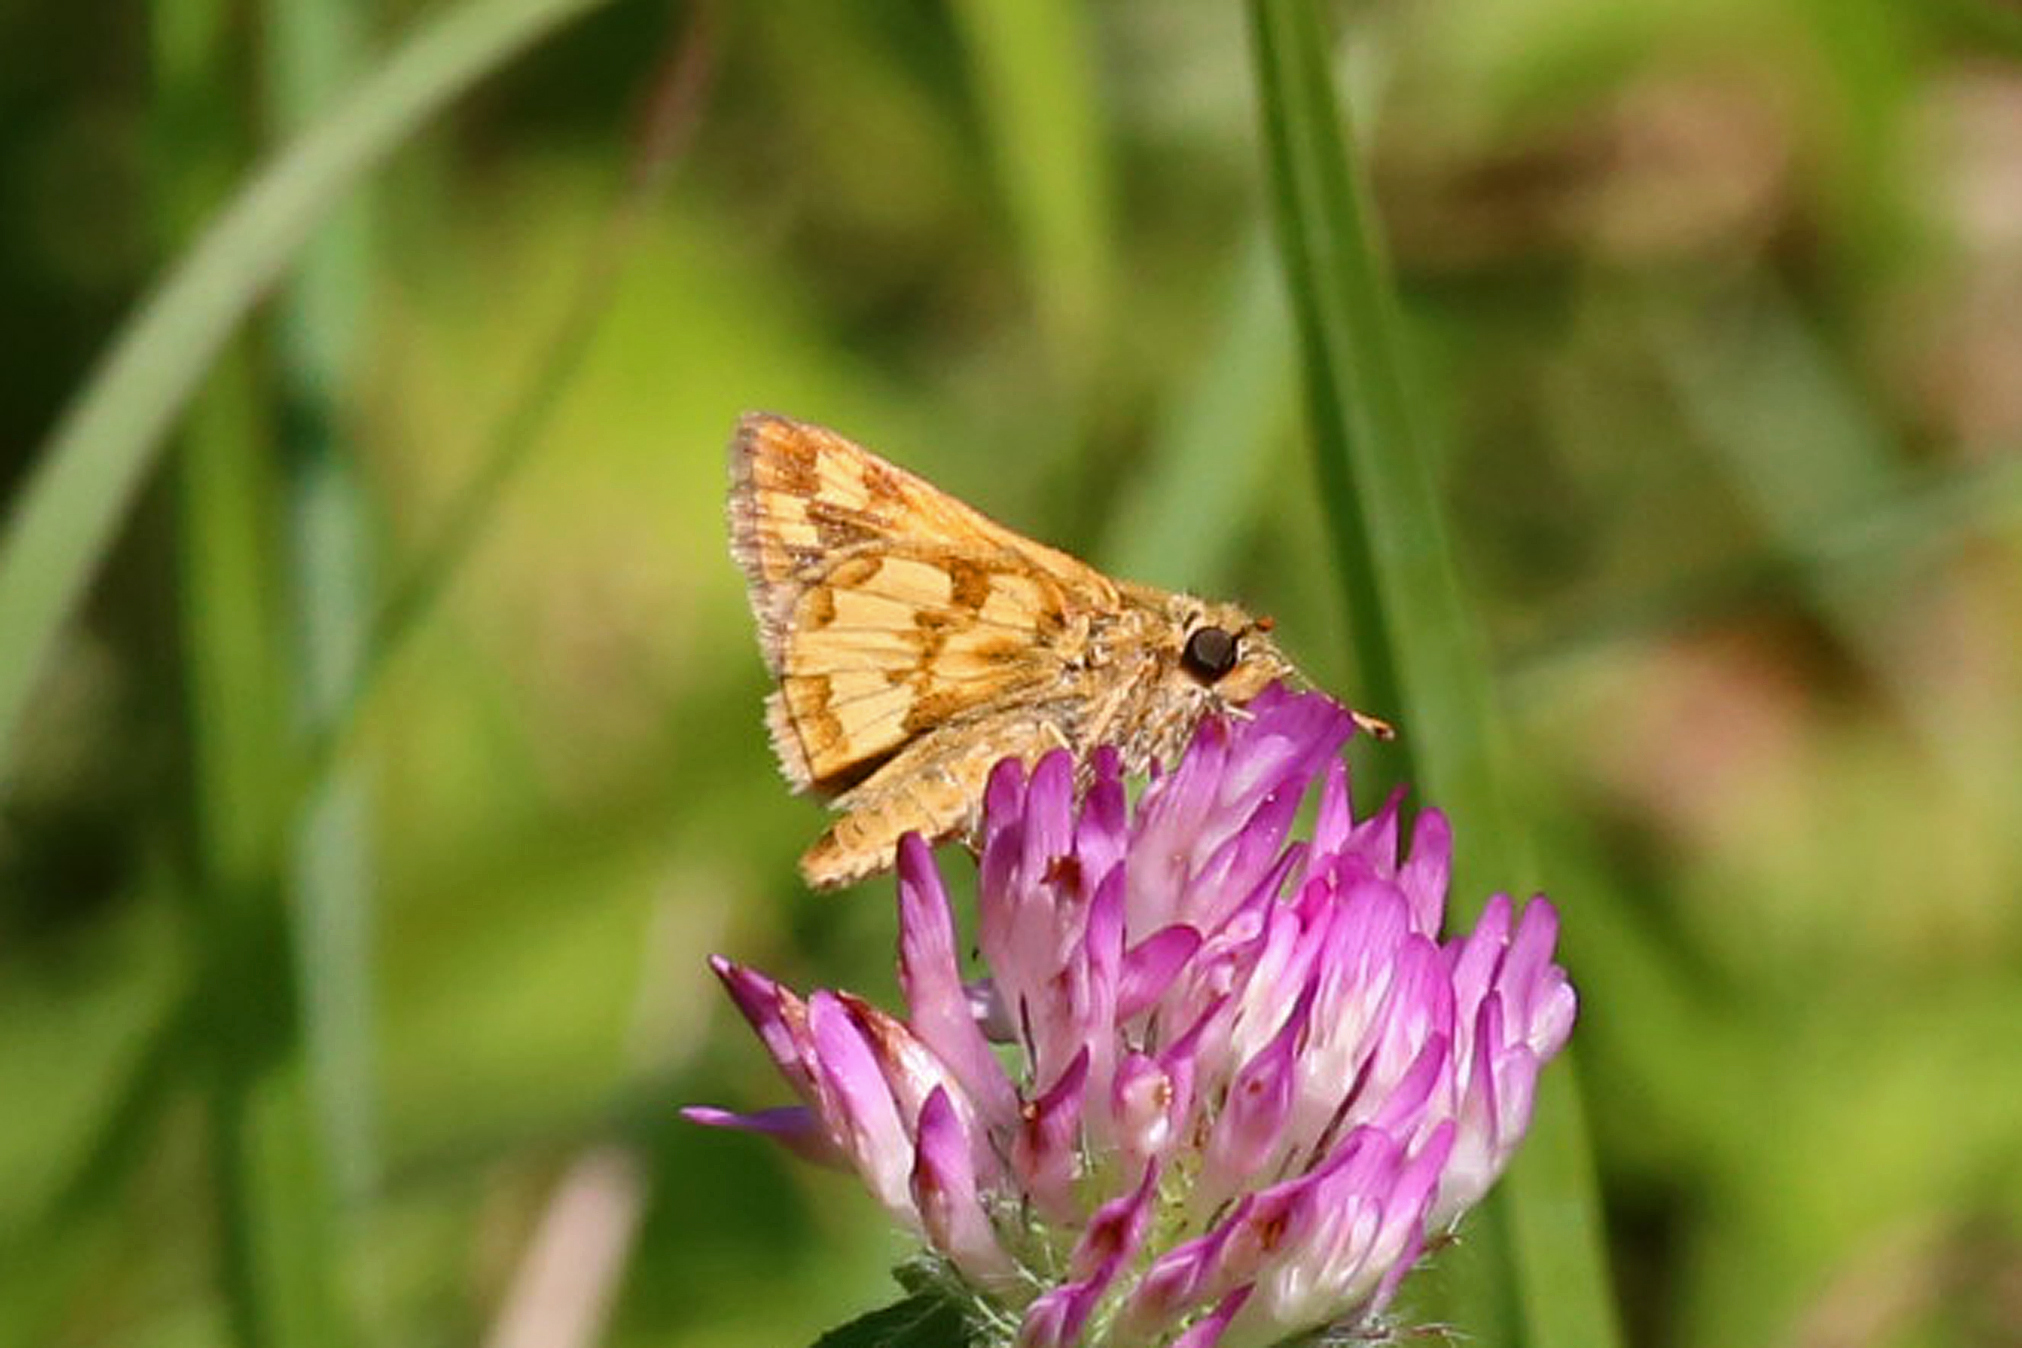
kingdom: Animalia
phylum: Arthropoda
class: Insecta
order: Lepidoptera
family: Hesperiidae
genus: Polites
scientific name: Polites coras
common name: Peck's skipper
